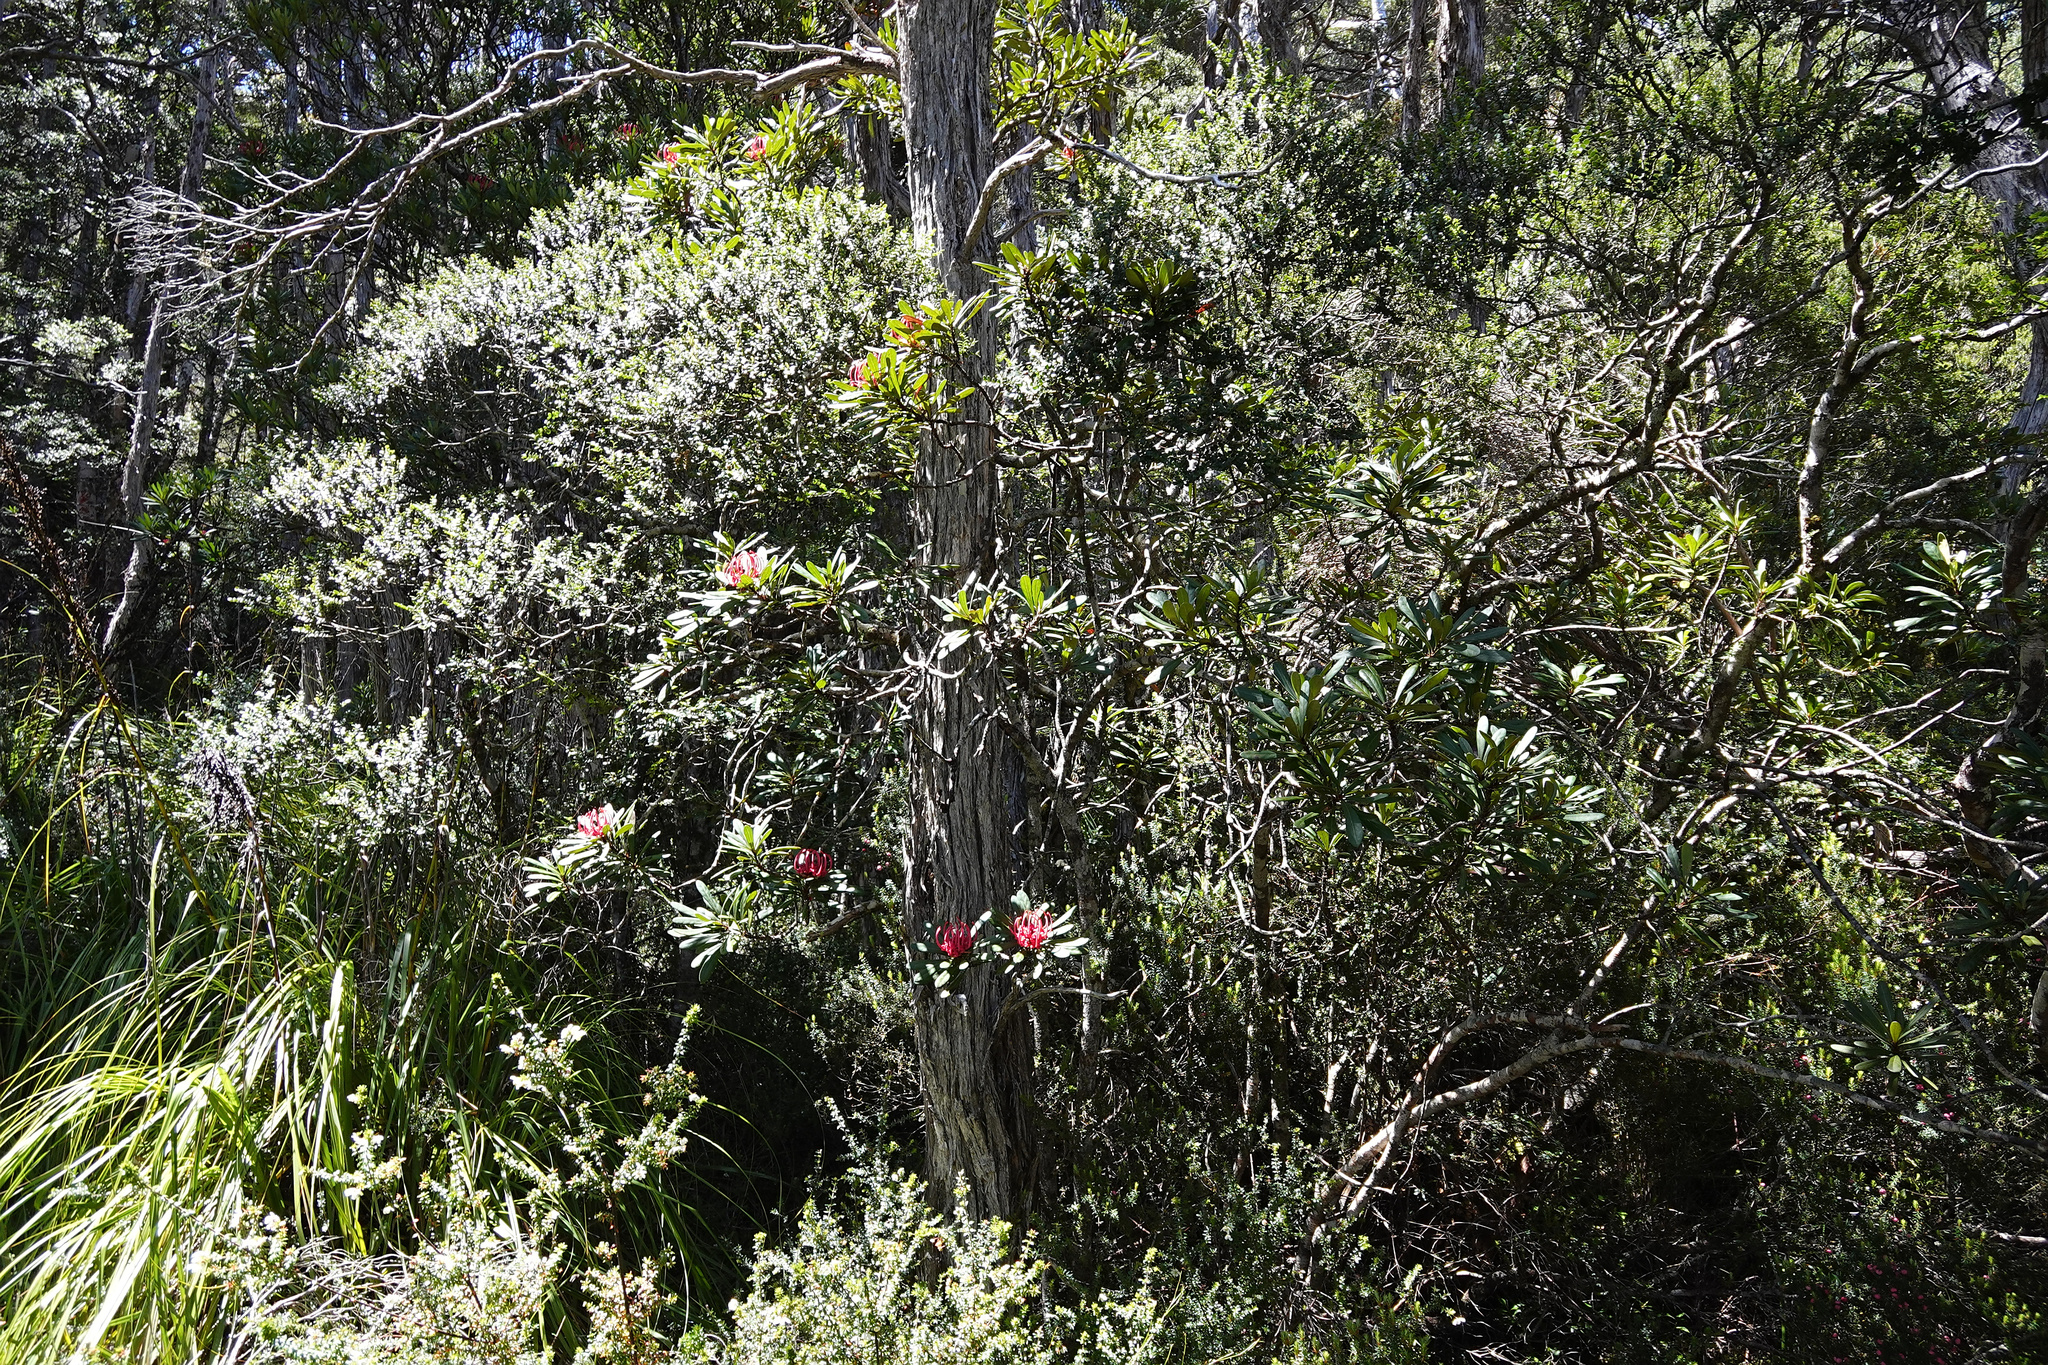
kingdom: Plantae
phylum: Tracheophyta
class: Magnoliopsida
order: Proteales
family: Proteaceae
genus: Telopea
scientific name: Telopea truncata
